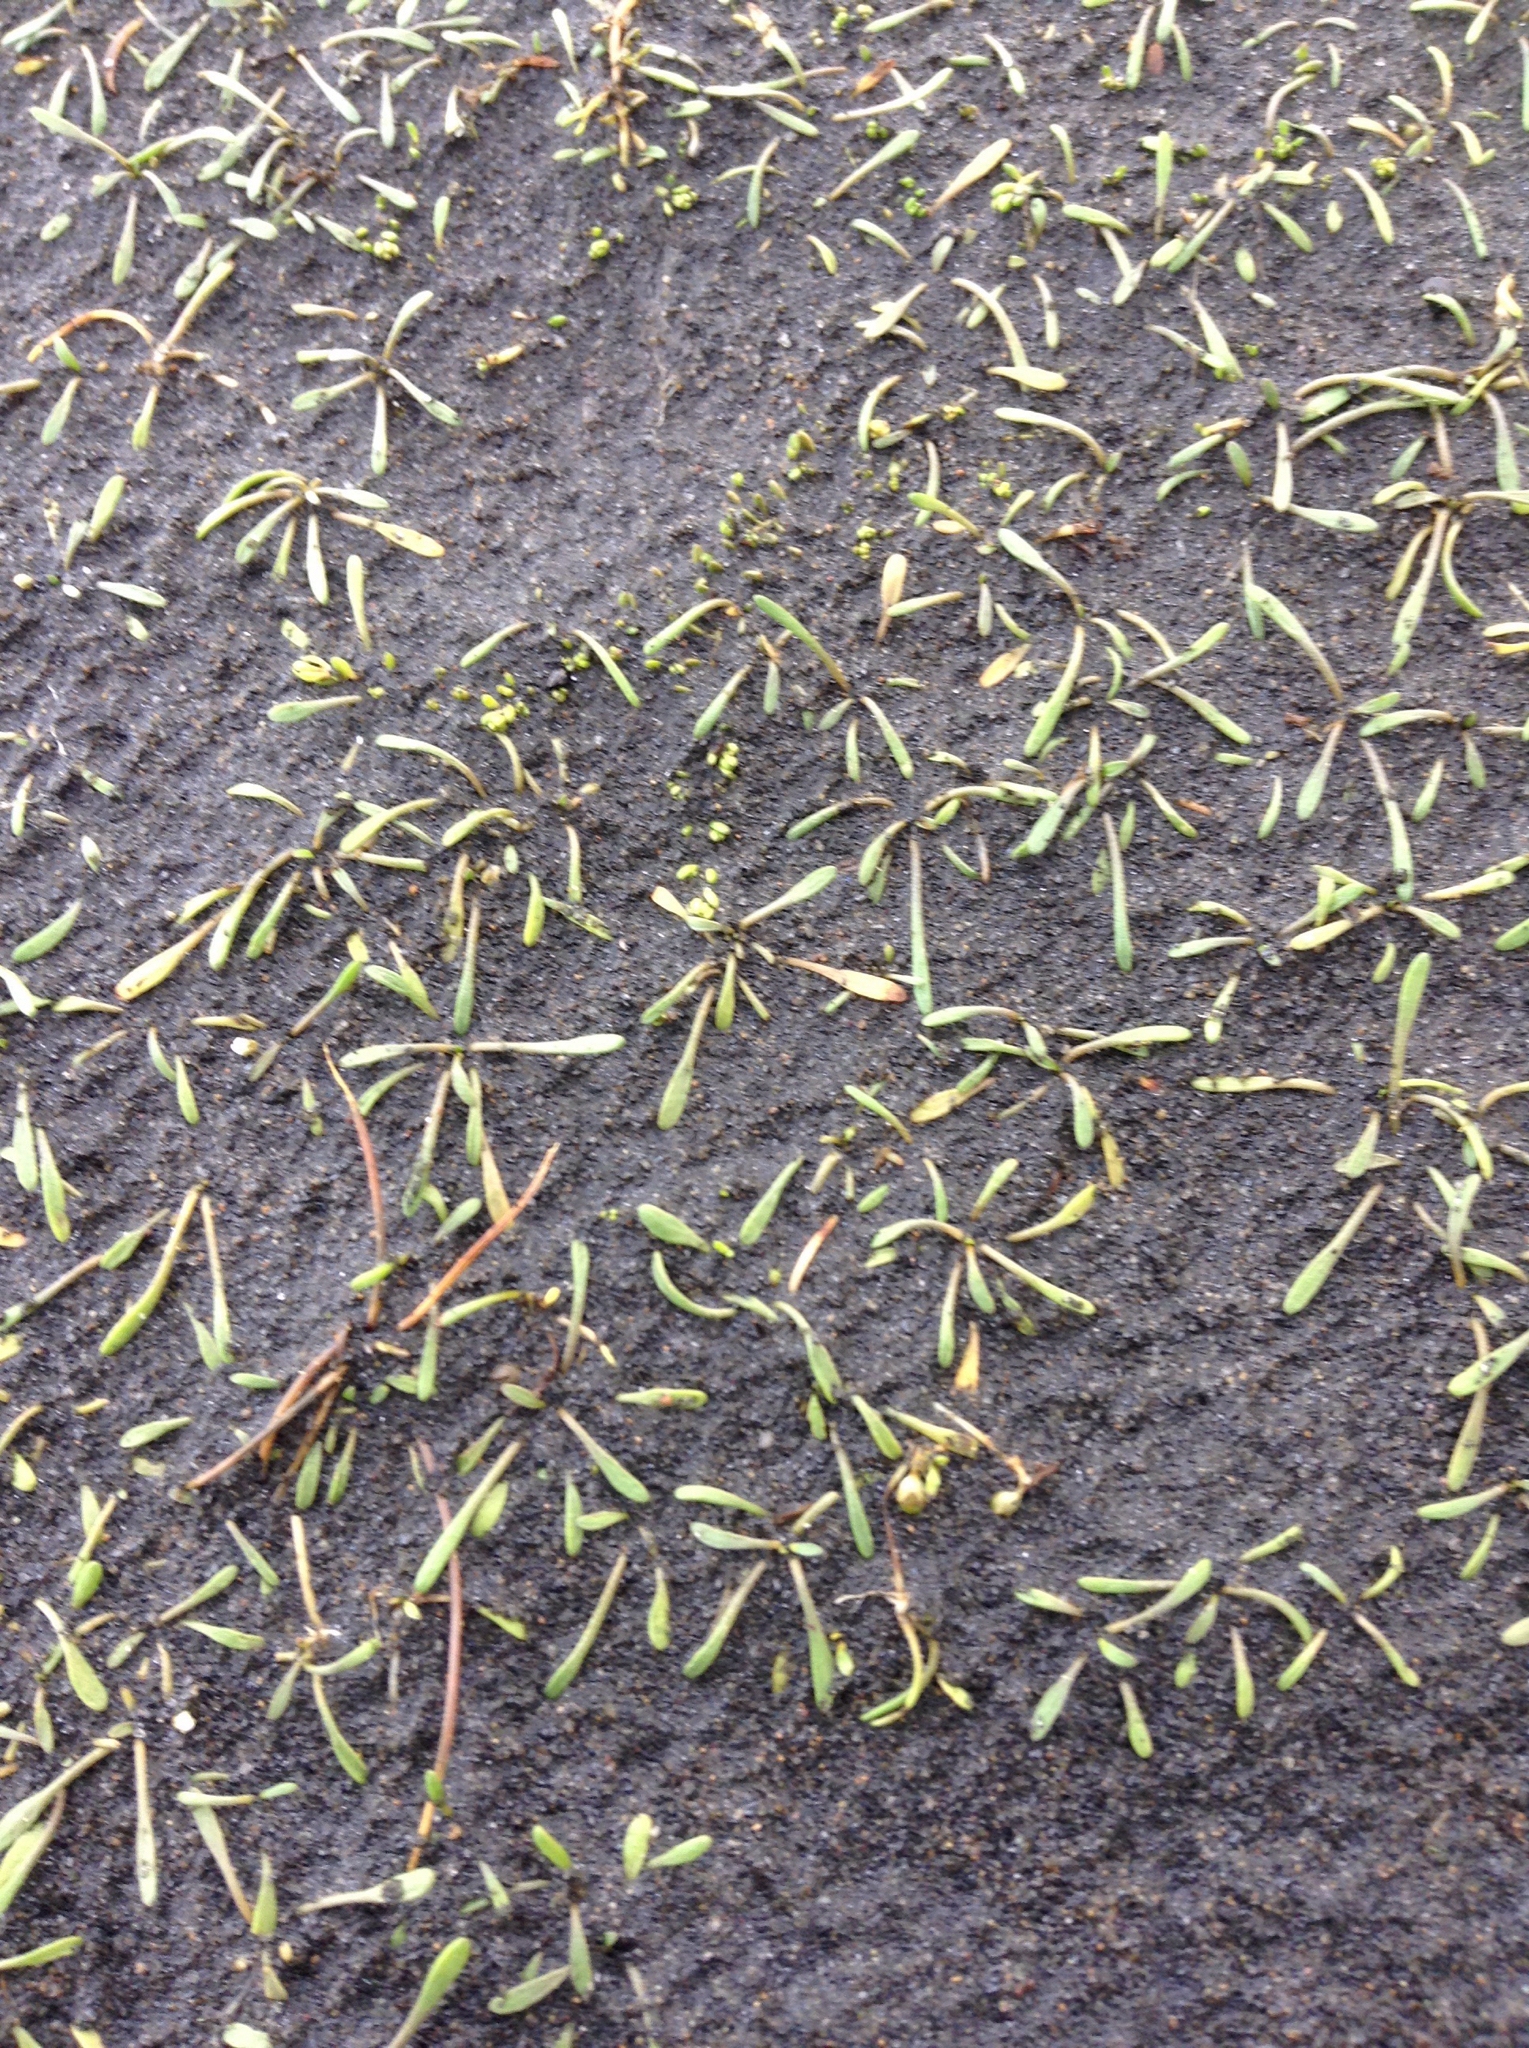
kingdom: Plantae
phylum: Tracheophyta
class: Magnoliopsida
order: Lamiales
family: Scrophulariaceae
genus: Limosella
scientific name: Limosella australis
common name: Welsh mudwort
